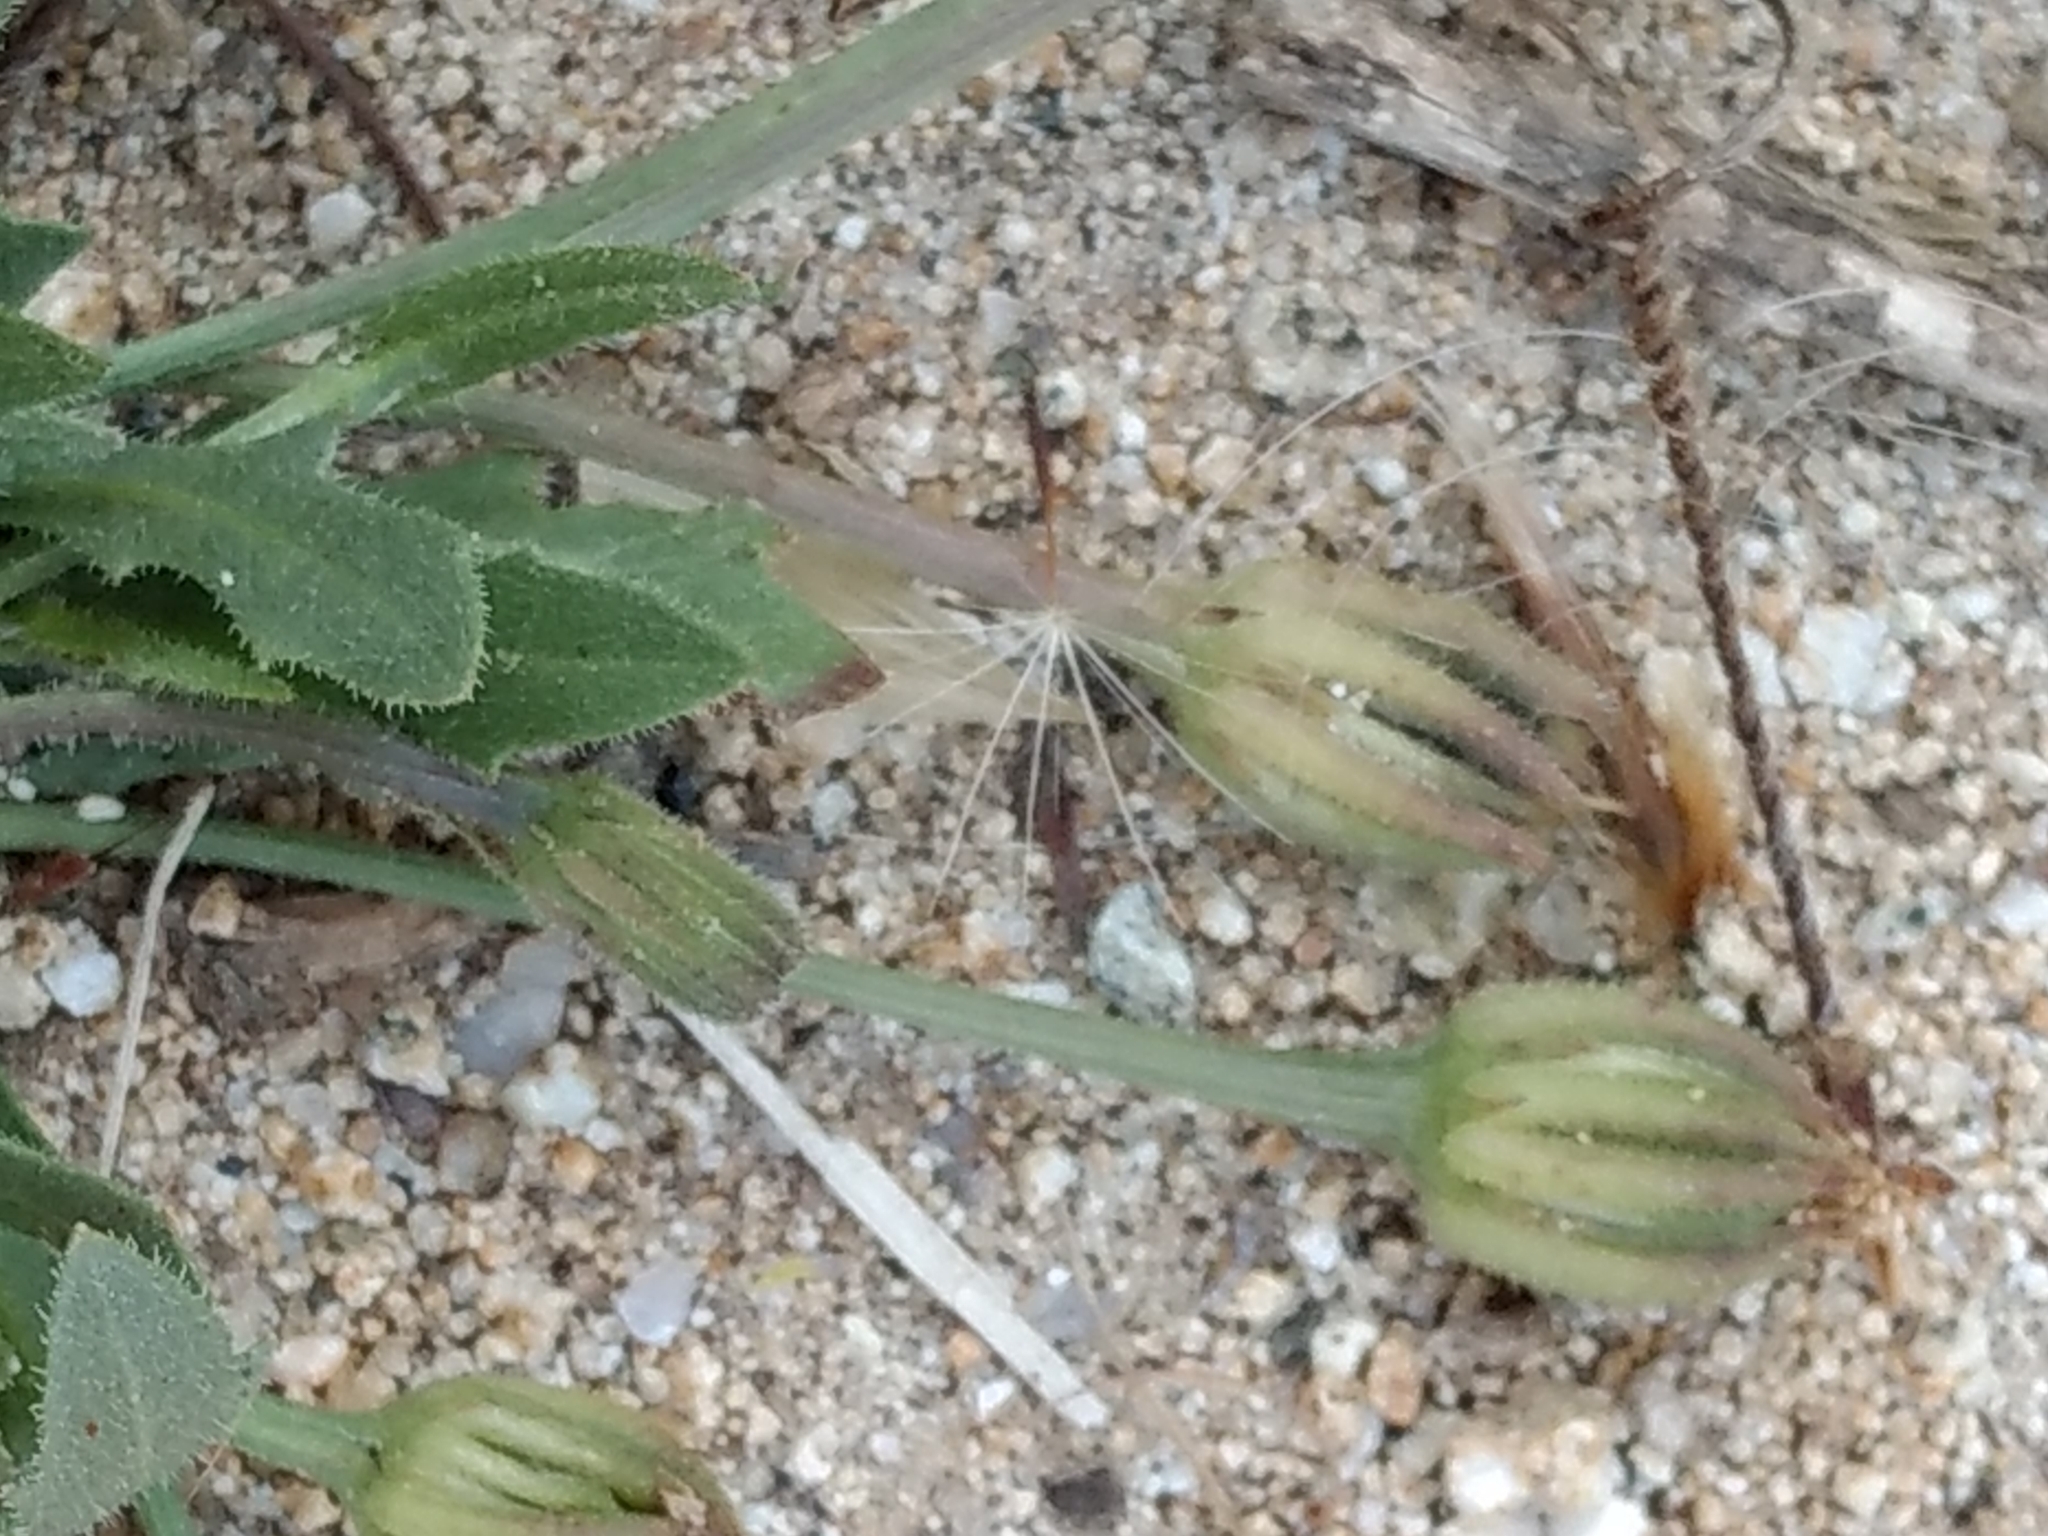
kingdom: Plantae
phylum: Tracheophyta
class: Magnoliopsida
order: Asterales
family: Asteraceae
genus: Hedypnois
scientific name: Hedypnois rhagadioloides
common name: Cretan weed
